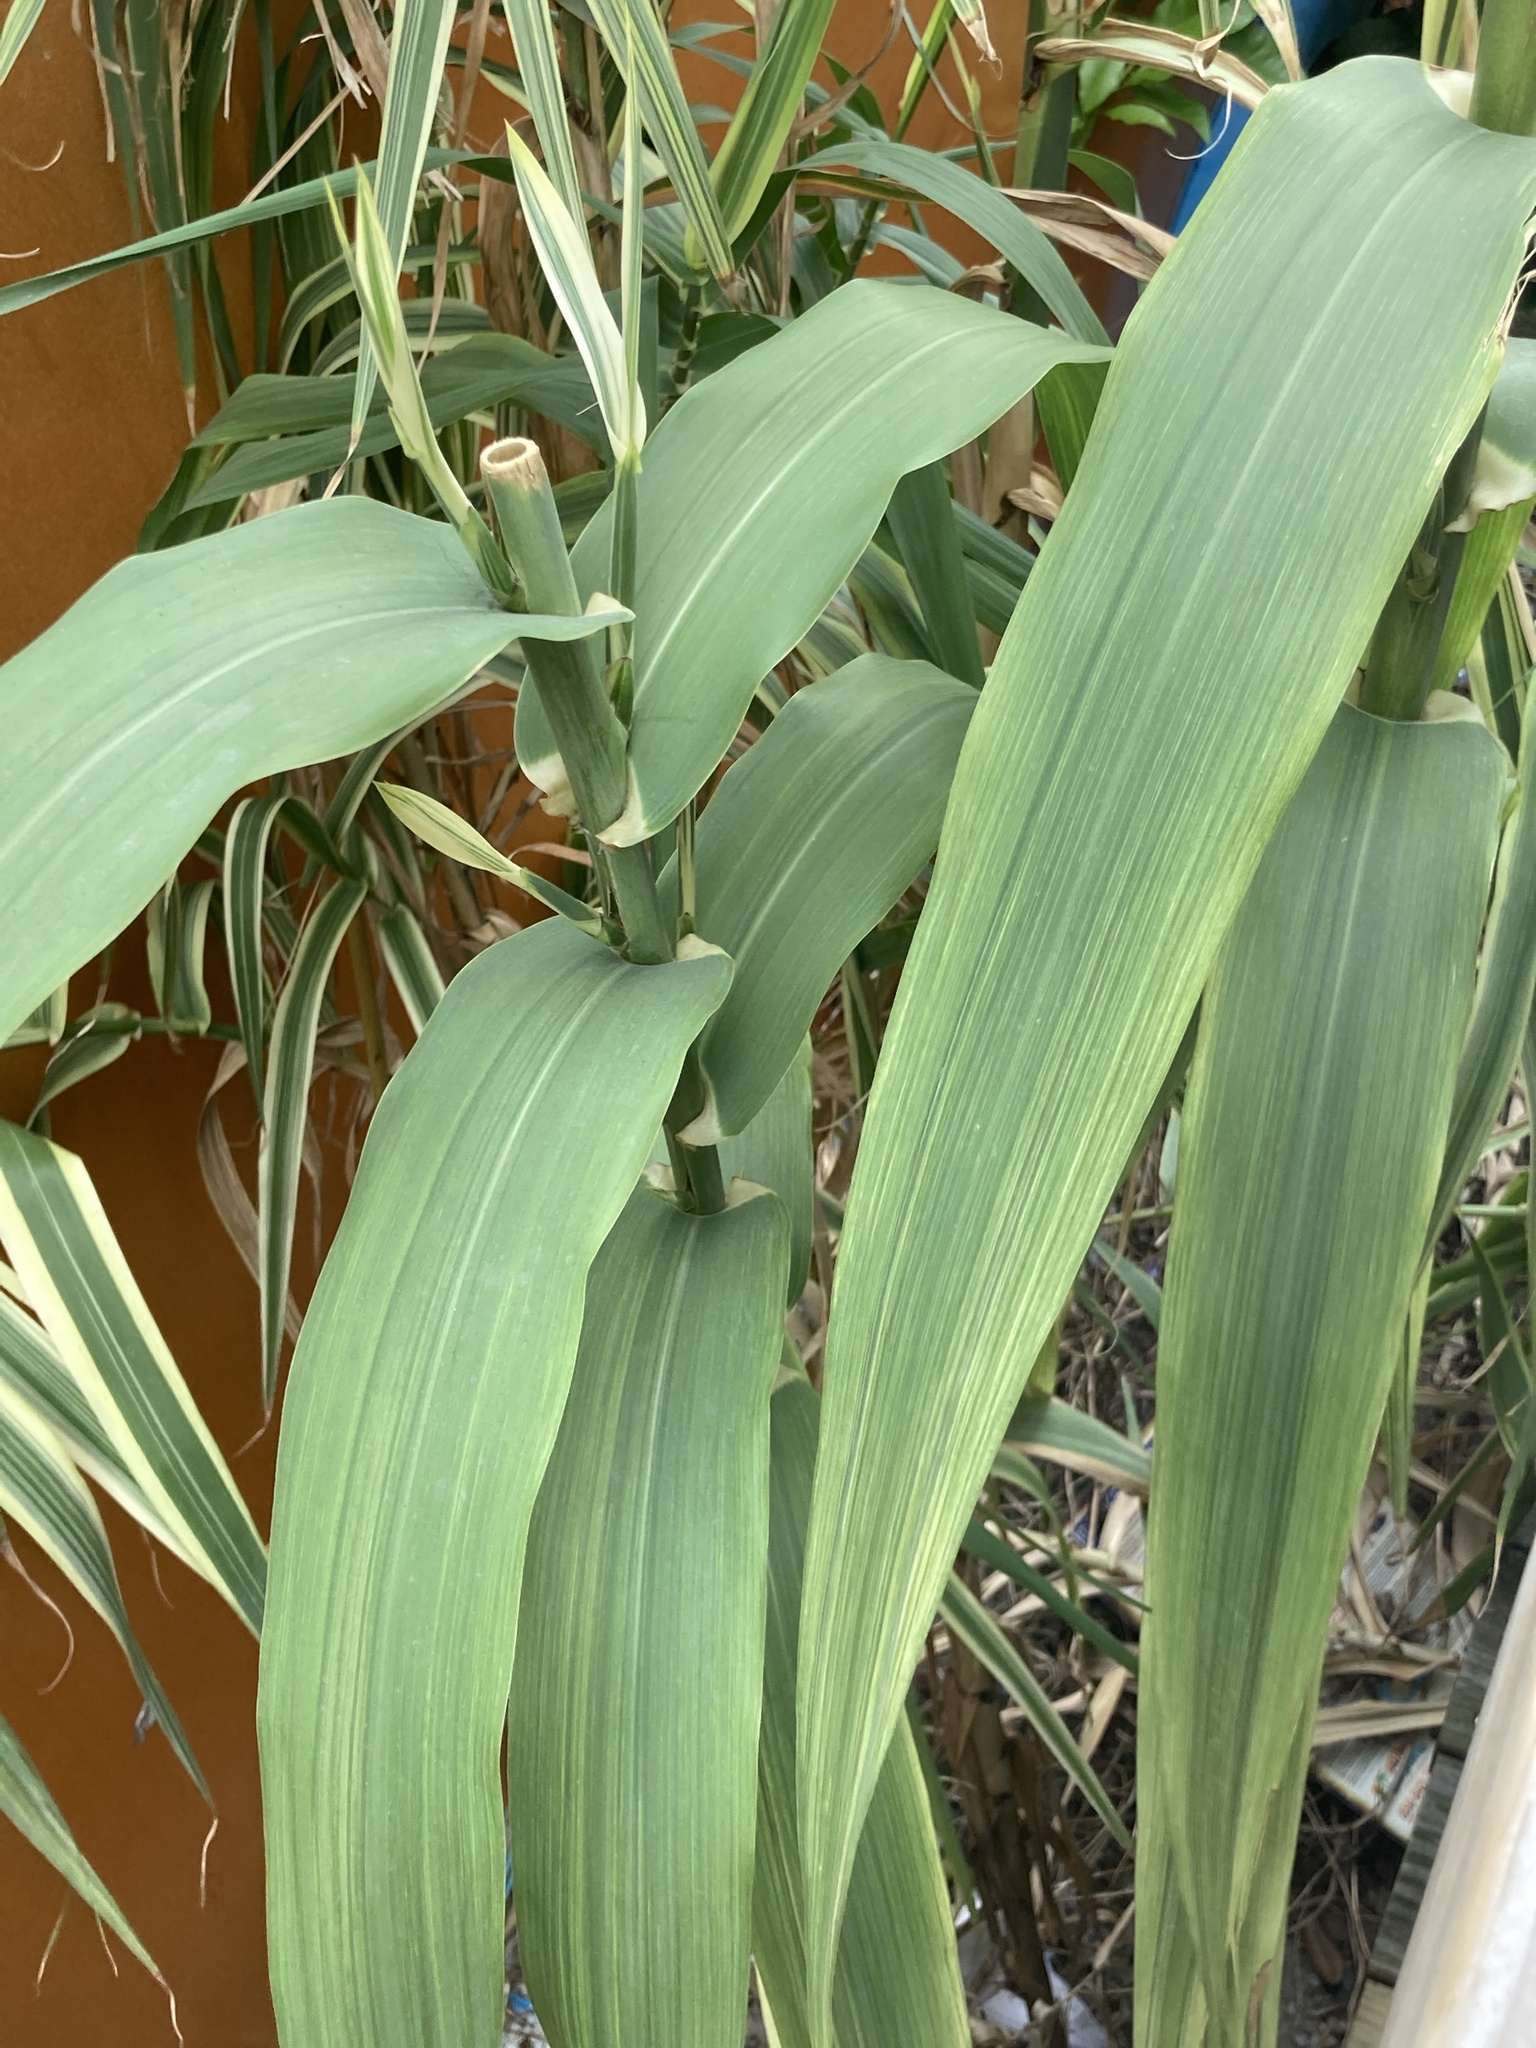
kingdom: Plantae
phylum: Tracheophyta
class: Liliopsida
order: Poales
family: Poaceae
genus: Arundo
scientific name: Arundo donax
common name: Giant reed
